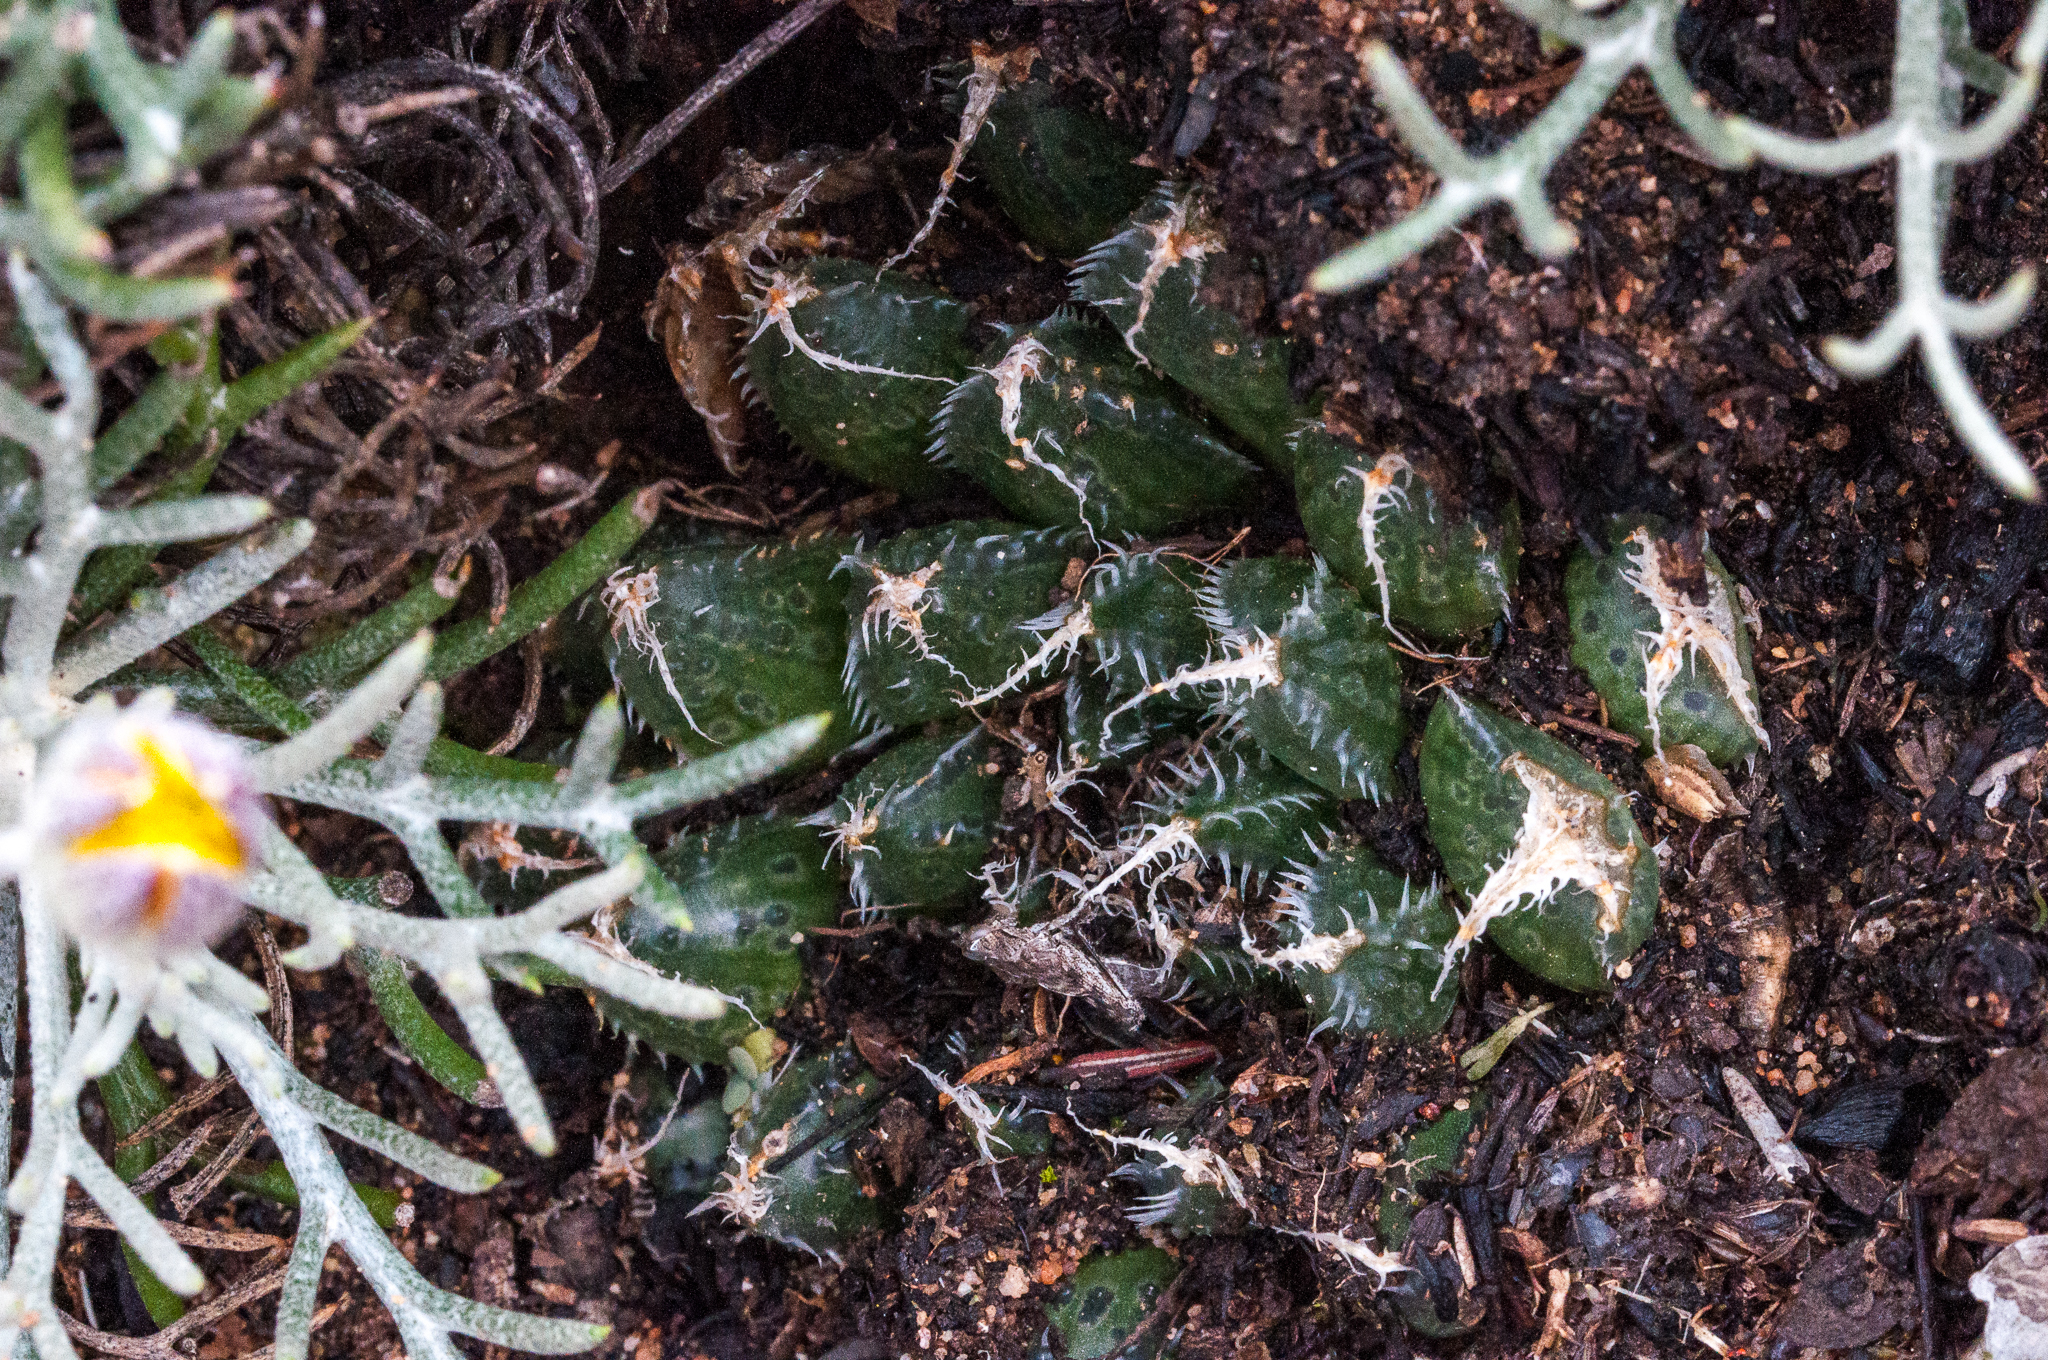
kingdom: Plantae
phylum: Tracheophyta
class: Liliopsida
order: Asparagales
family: Asphodelaceae
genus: Haworthia
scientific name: Haworthia nortieri
